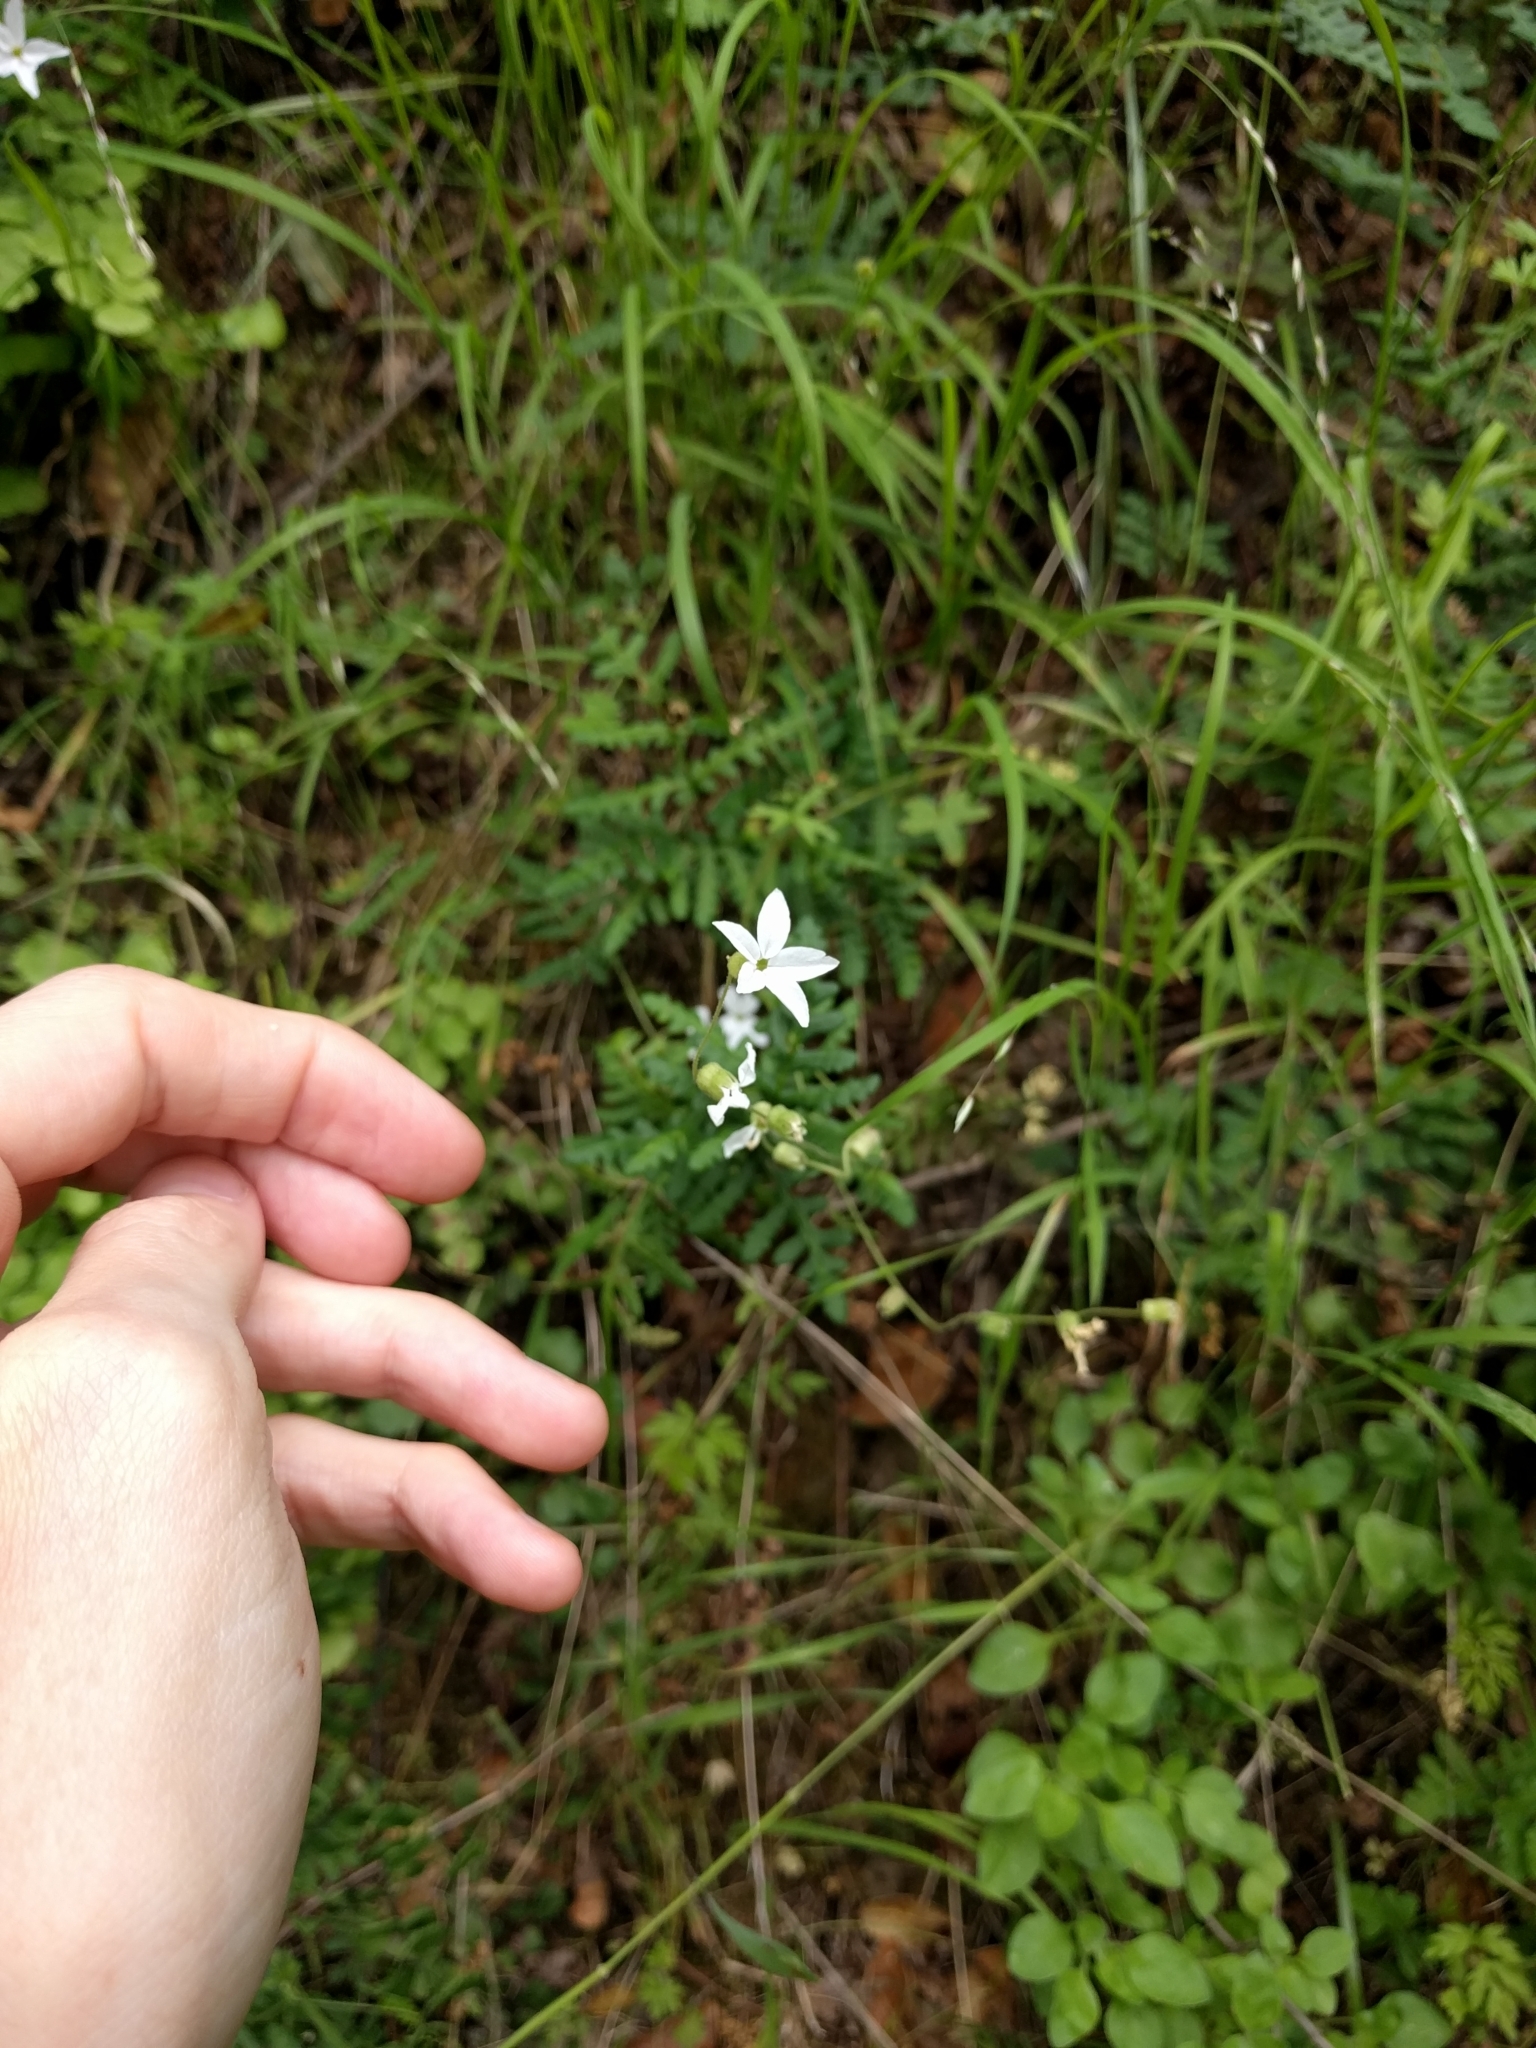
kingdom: Plantae
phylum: Tracheophyta
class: Magnoliopsida
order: Saxifragales
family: Saxifragaceae
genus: Lithophragma
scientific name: Lithophragma heterophyllum
